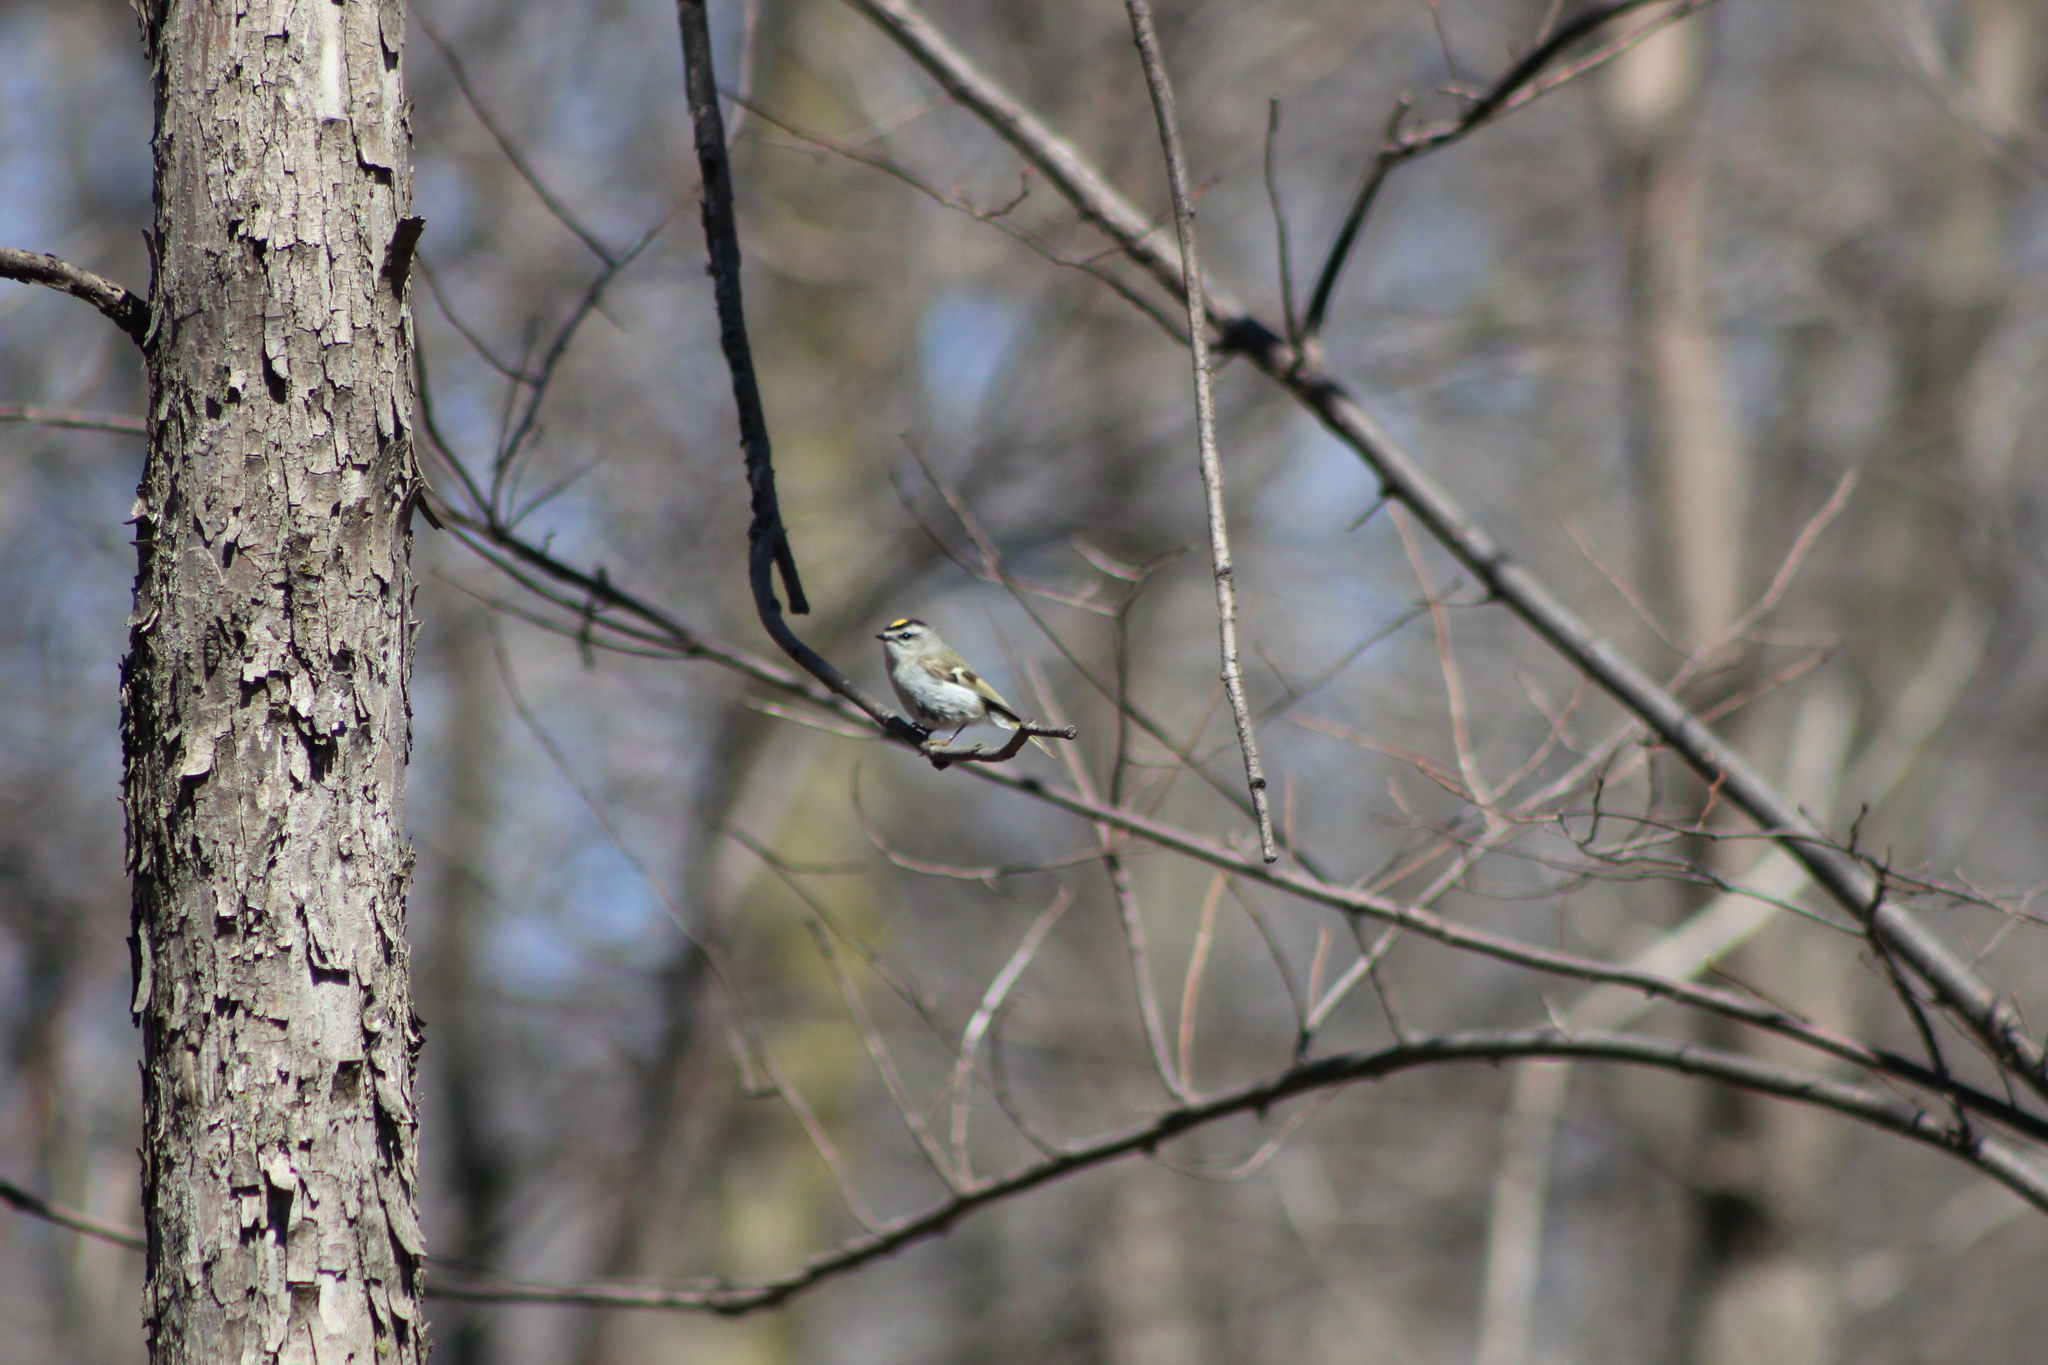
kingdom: Animalia
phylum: Chordata
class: Aves
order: Passeriformes
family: Regulidae
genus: Regulus
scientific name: Regulus satrapa
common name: Golden-crowned kinglet
